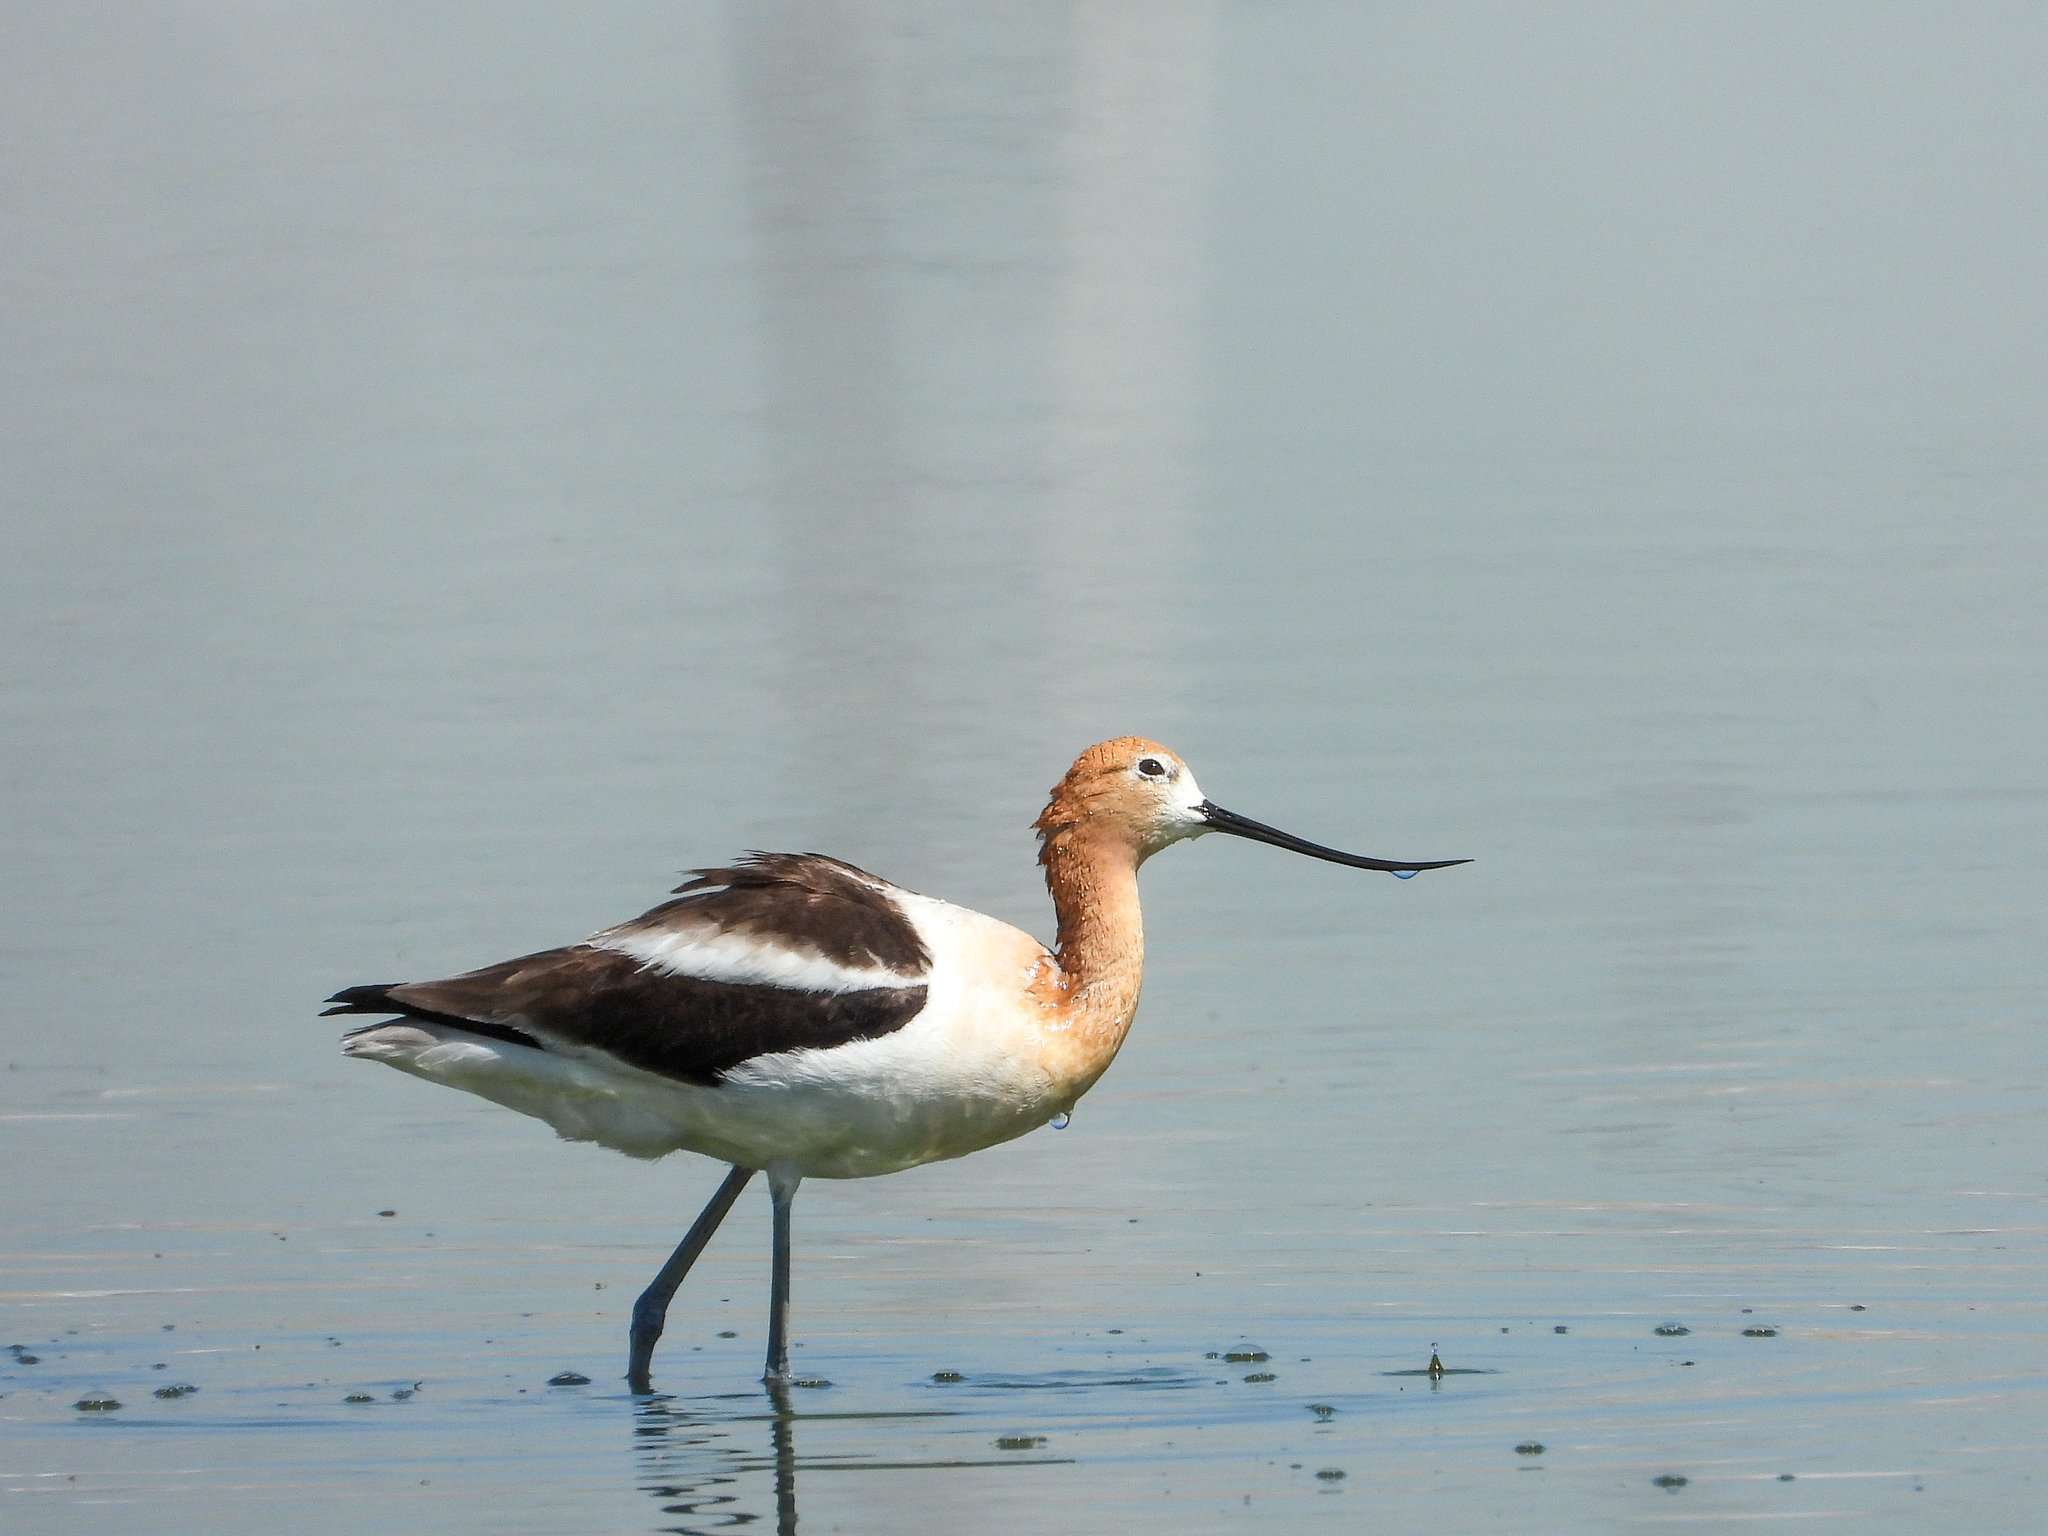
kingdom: Animalia
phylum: Chordata
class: Aves
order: Charadriiformes
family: Recurvirostridae
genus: Recurvirostra
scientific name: Recurvirostra americana
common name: American avocet
